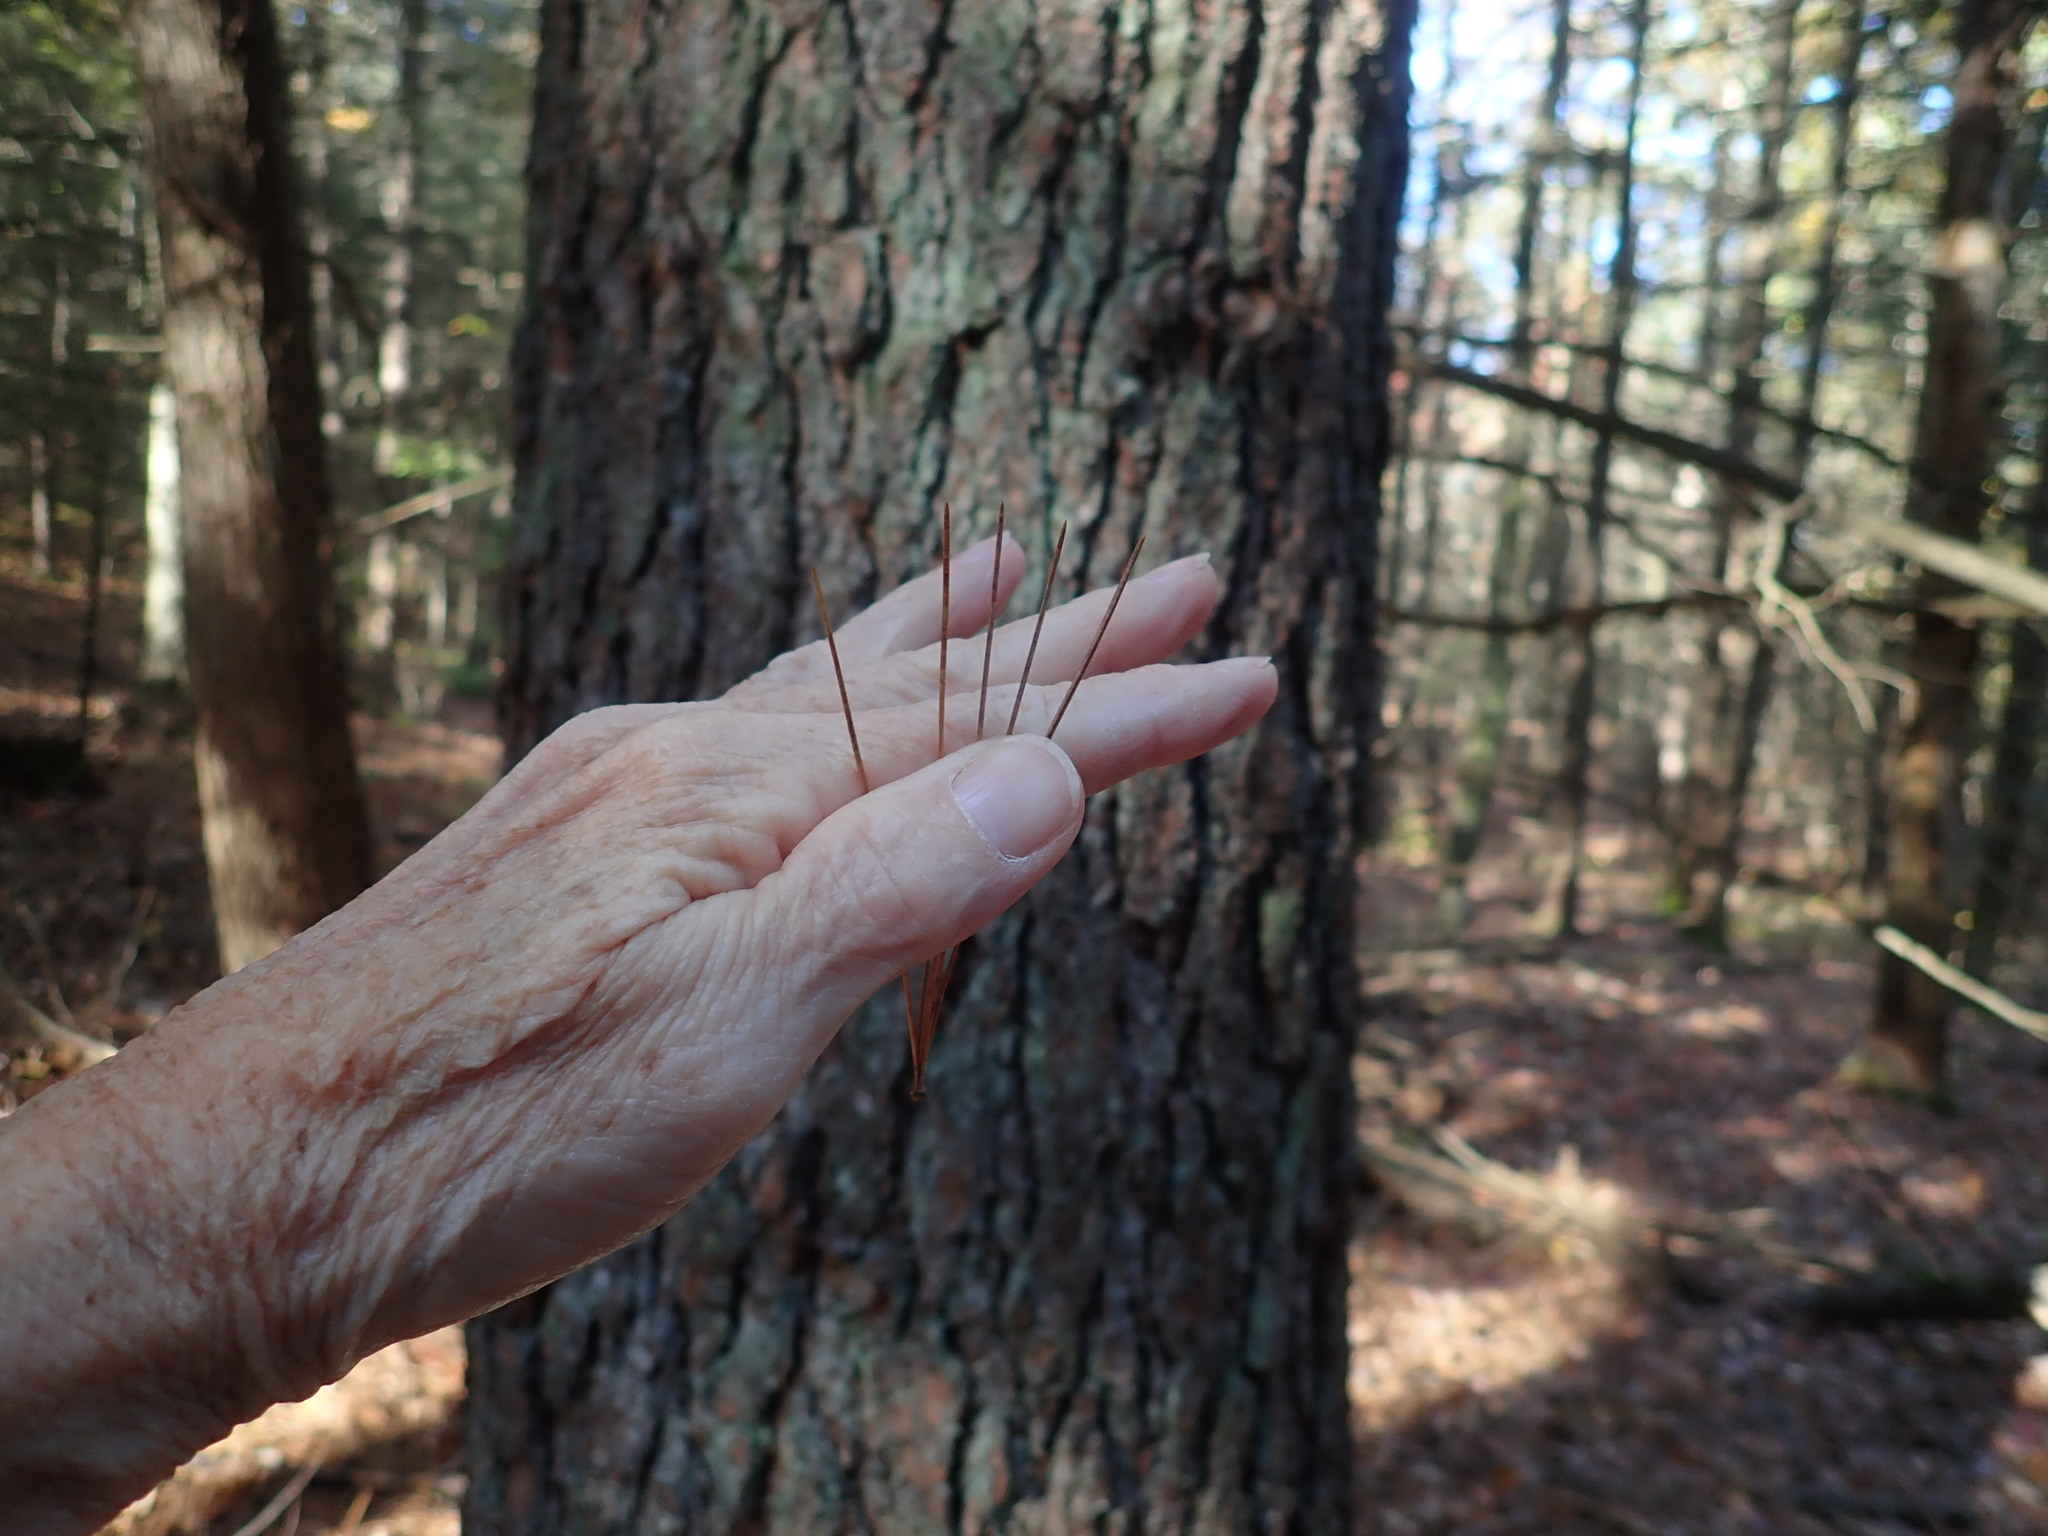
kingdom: Plantae
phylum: Tracheophyta
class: Pinopsida
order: Pinales
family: Pinaceae
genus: Pinus
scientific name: Pinus strobus
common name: Weymouth pine
